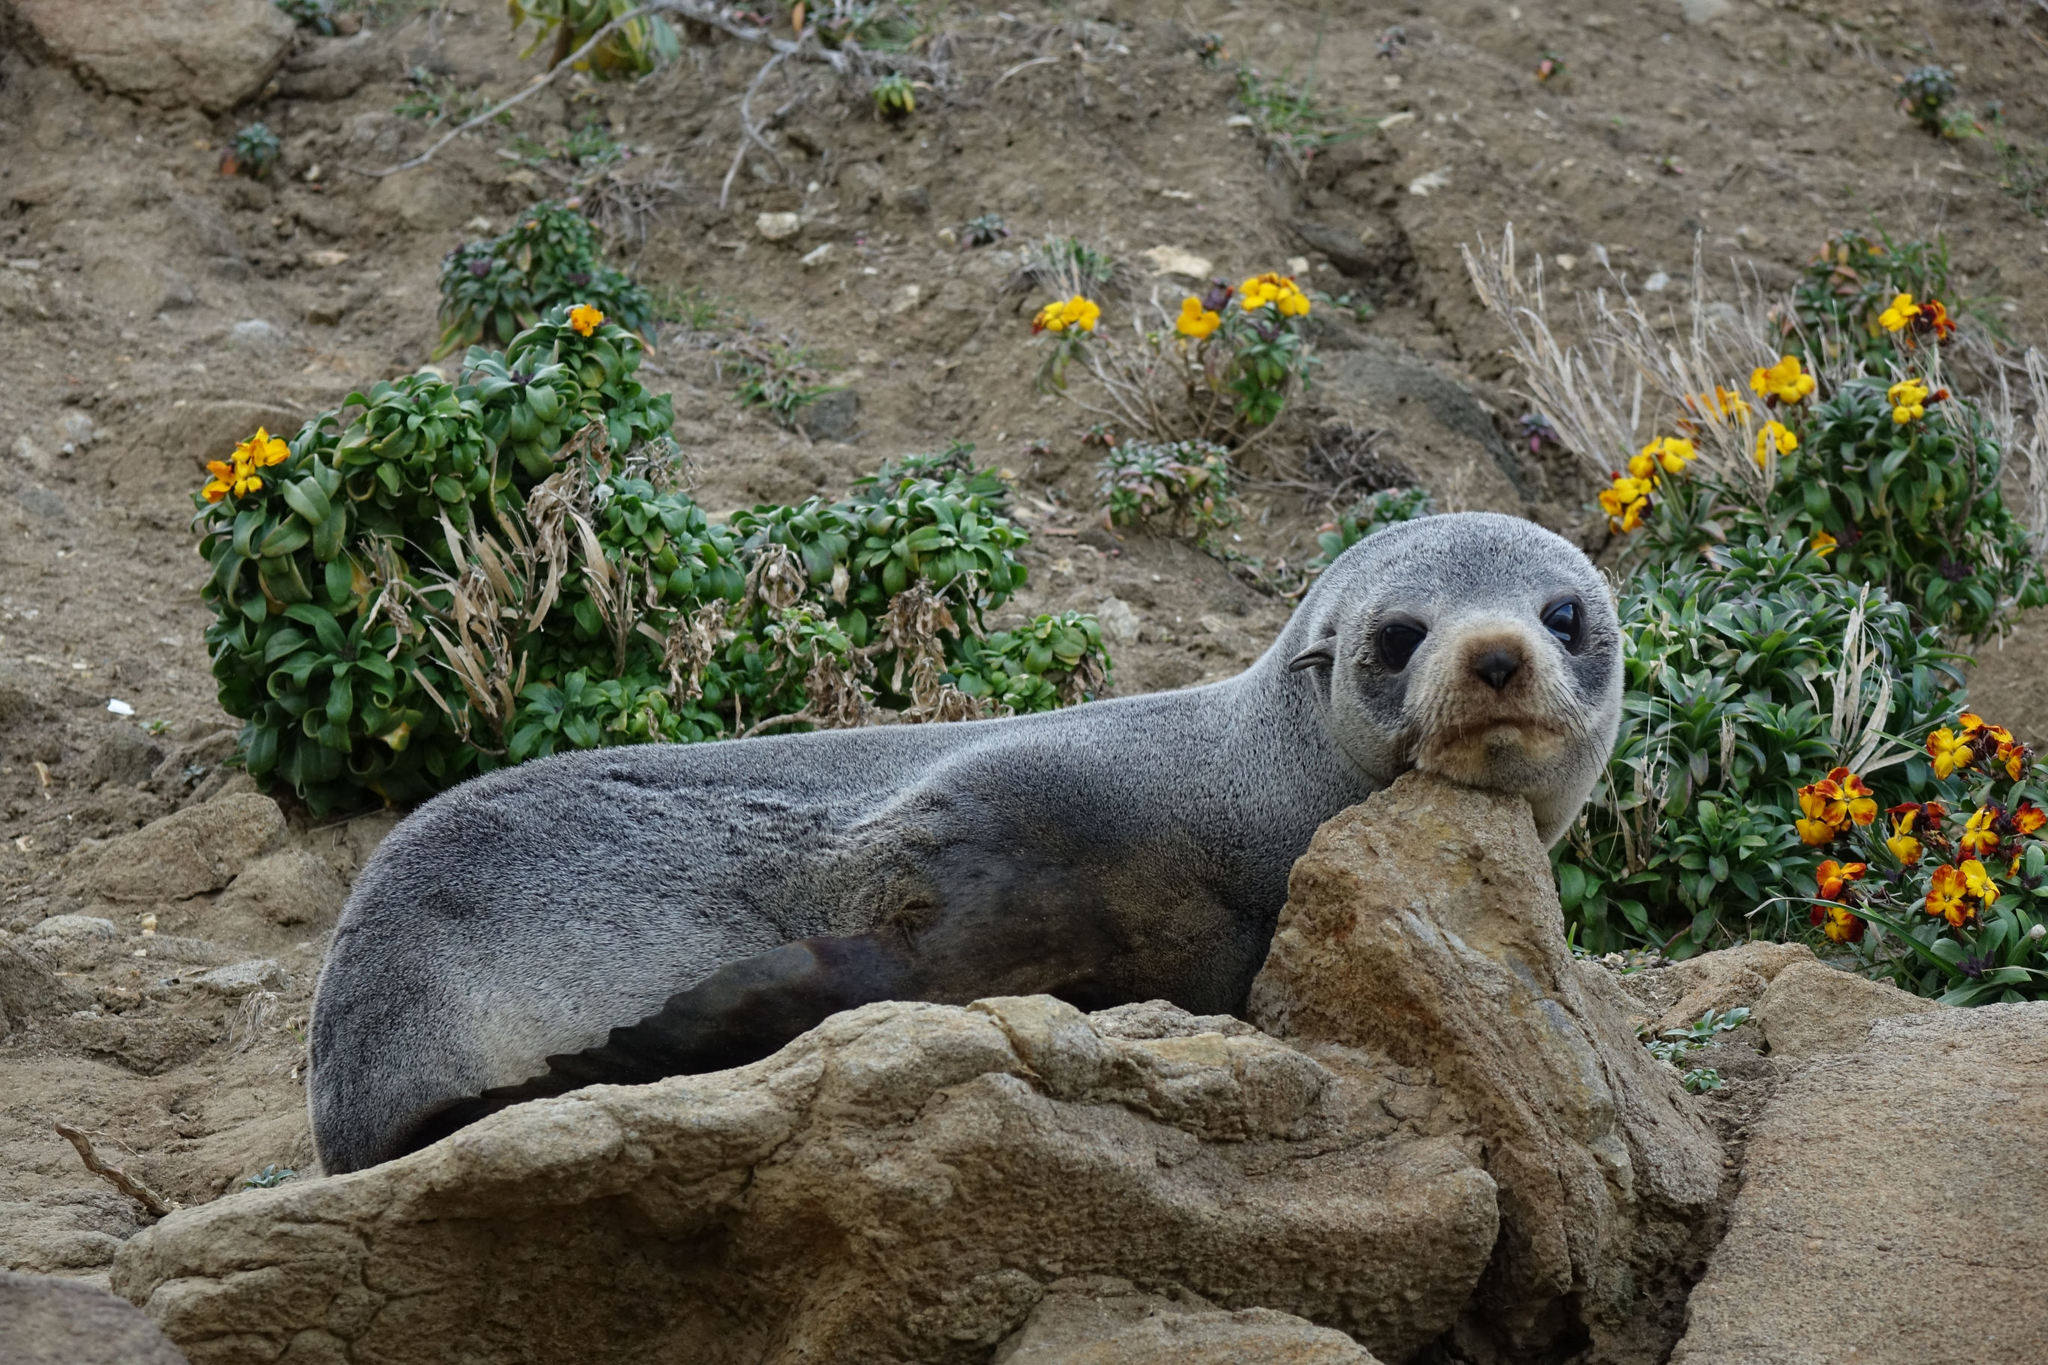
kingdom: Animalia
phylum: Chordata
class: Mammalia
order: Carnivora
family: Otariidae
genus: Arctocephalus
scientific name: Arctocephalus forsteri
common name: New zealand fur seal
